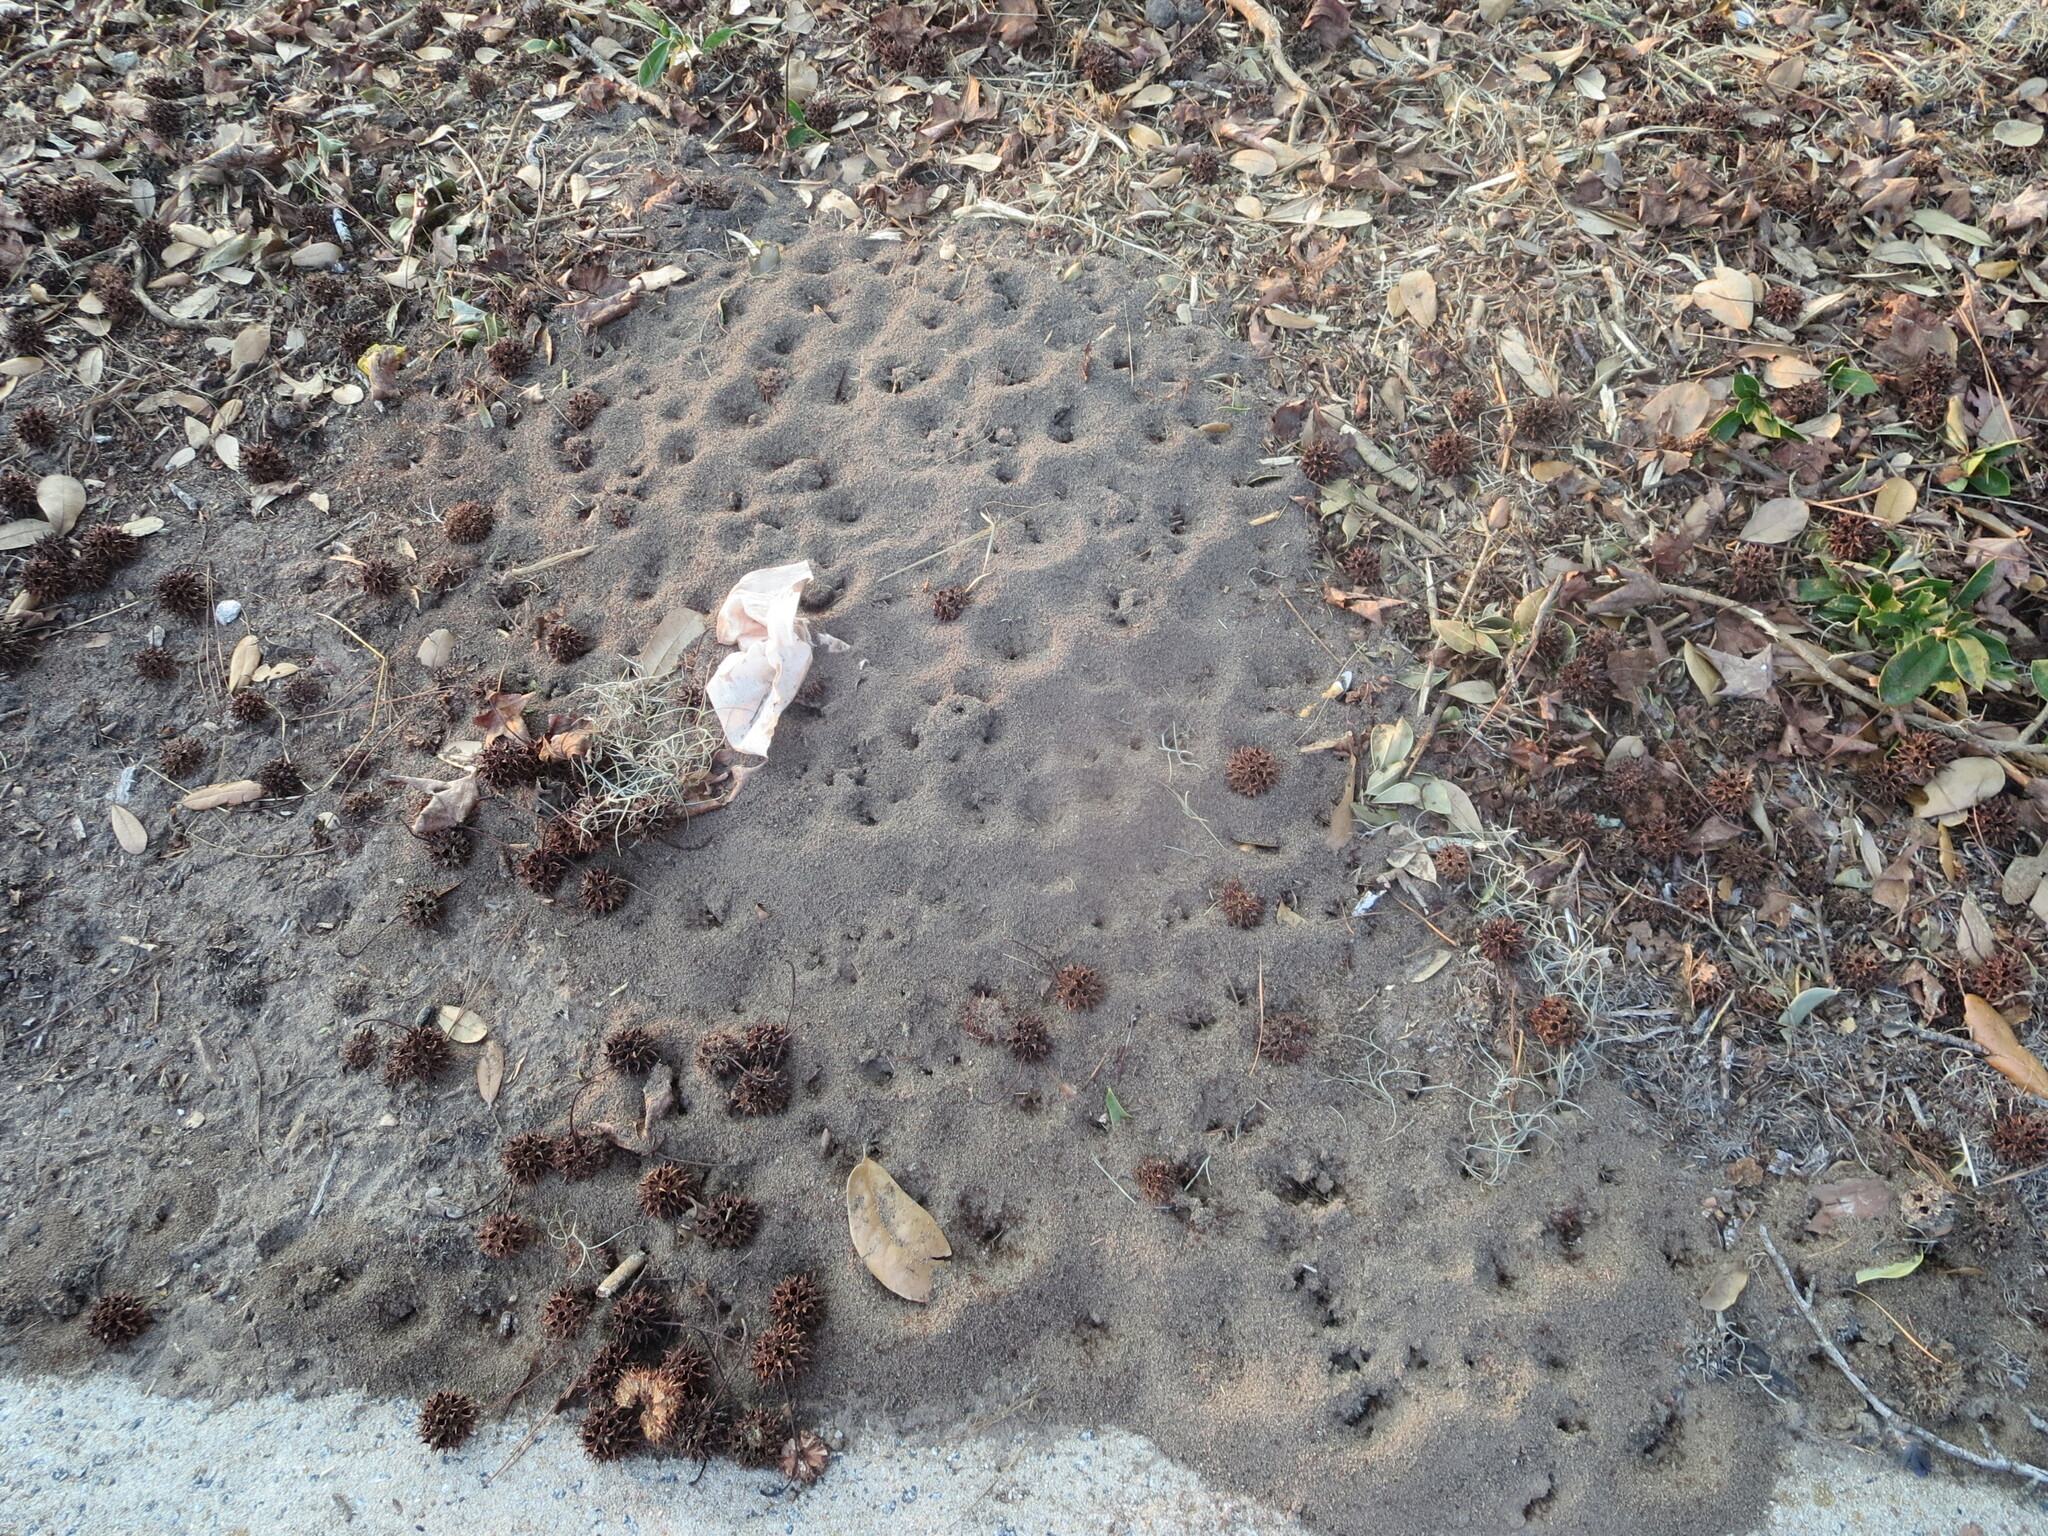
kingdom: Animalia
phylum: Arthropoda
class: Insecta
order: Hymenoptera
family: Formicidae
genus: Solenopsis
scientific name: Solenopsis invicta
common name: Red imported fire ant
